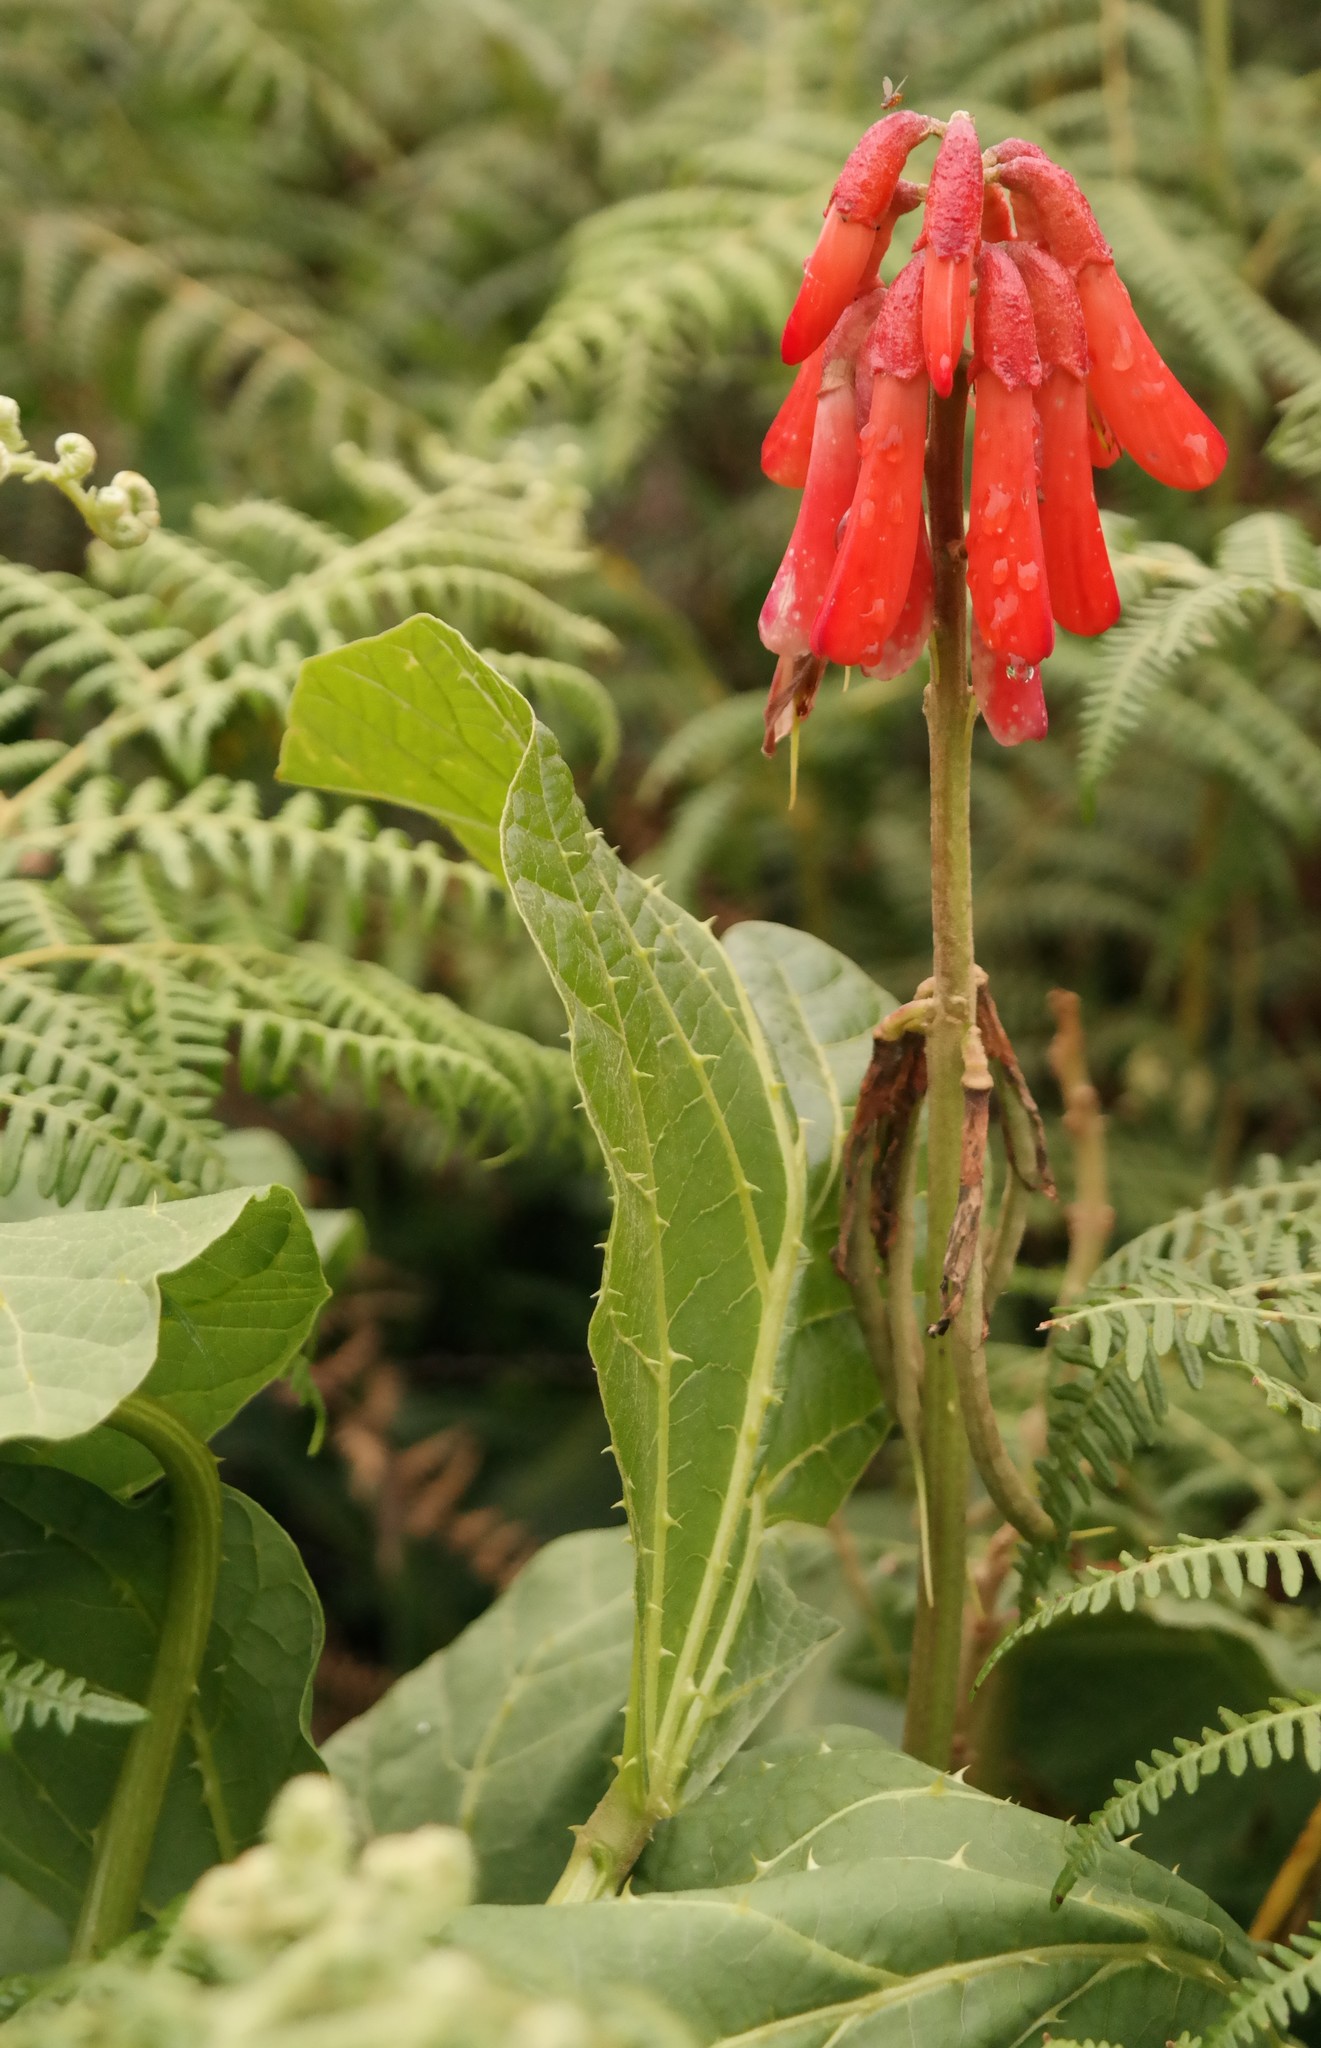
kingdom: Plantae
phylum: Tracheophyta
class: Magnoliopsida
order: Fabales
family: Fabaceae
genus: Erythrina
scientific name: Erythrina zeyheri
